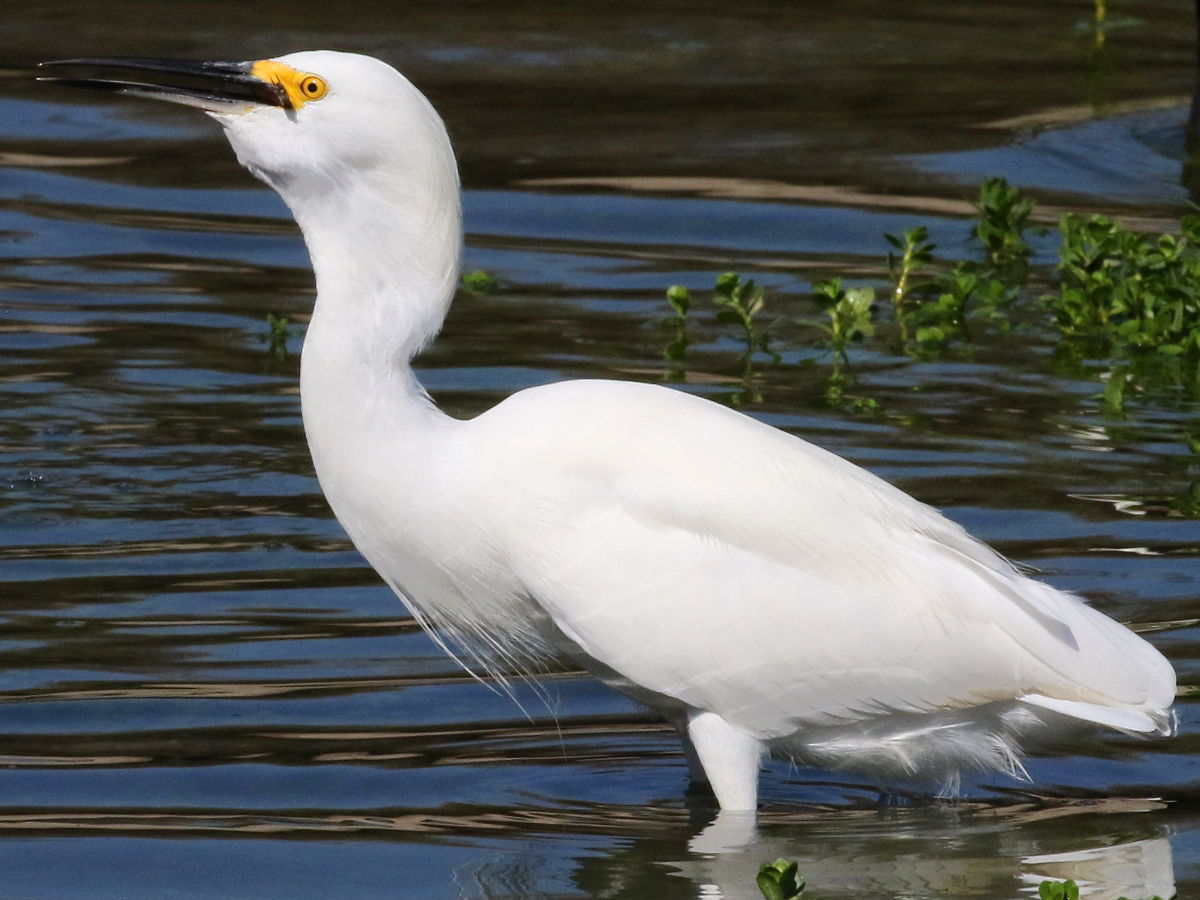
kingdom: Animalia
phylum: Chordata
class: Aves
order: Pelecaniformes
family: Ardeidae
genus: Egretta
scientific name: Egretta thula
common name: Snowy egret
